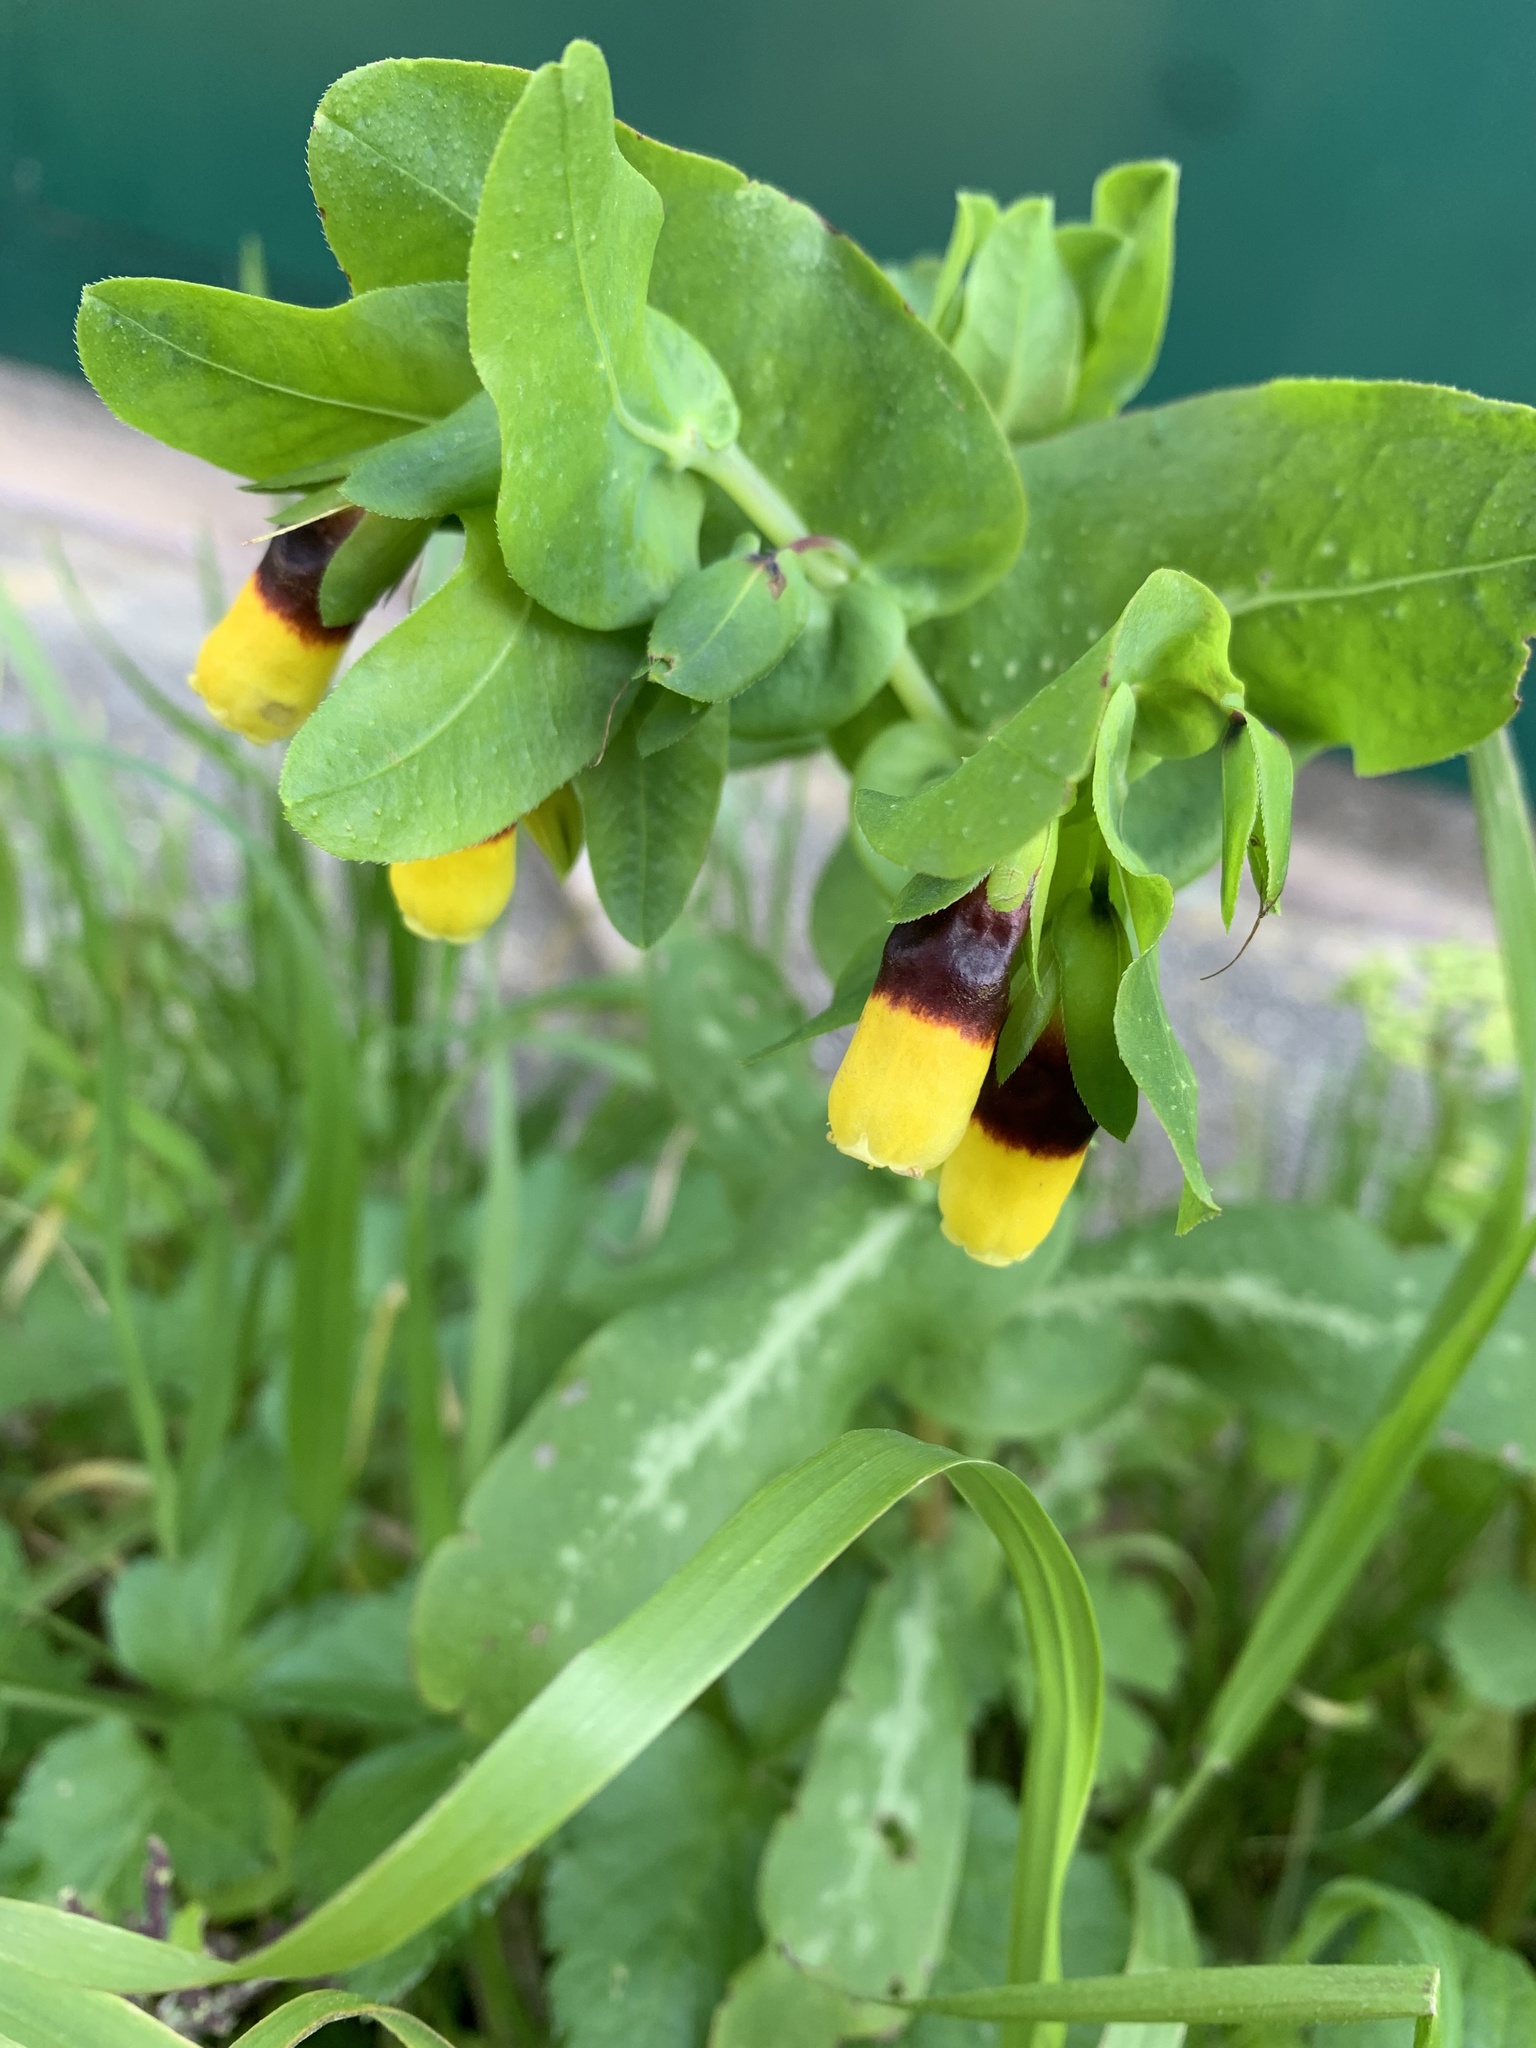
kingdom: Plantae
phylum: Tracheophyta
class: Magnoliopsida
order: Boraginales
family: Boraginaceae
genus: Cerinthe
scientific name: Cerinthe major
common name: Greater honeywort
